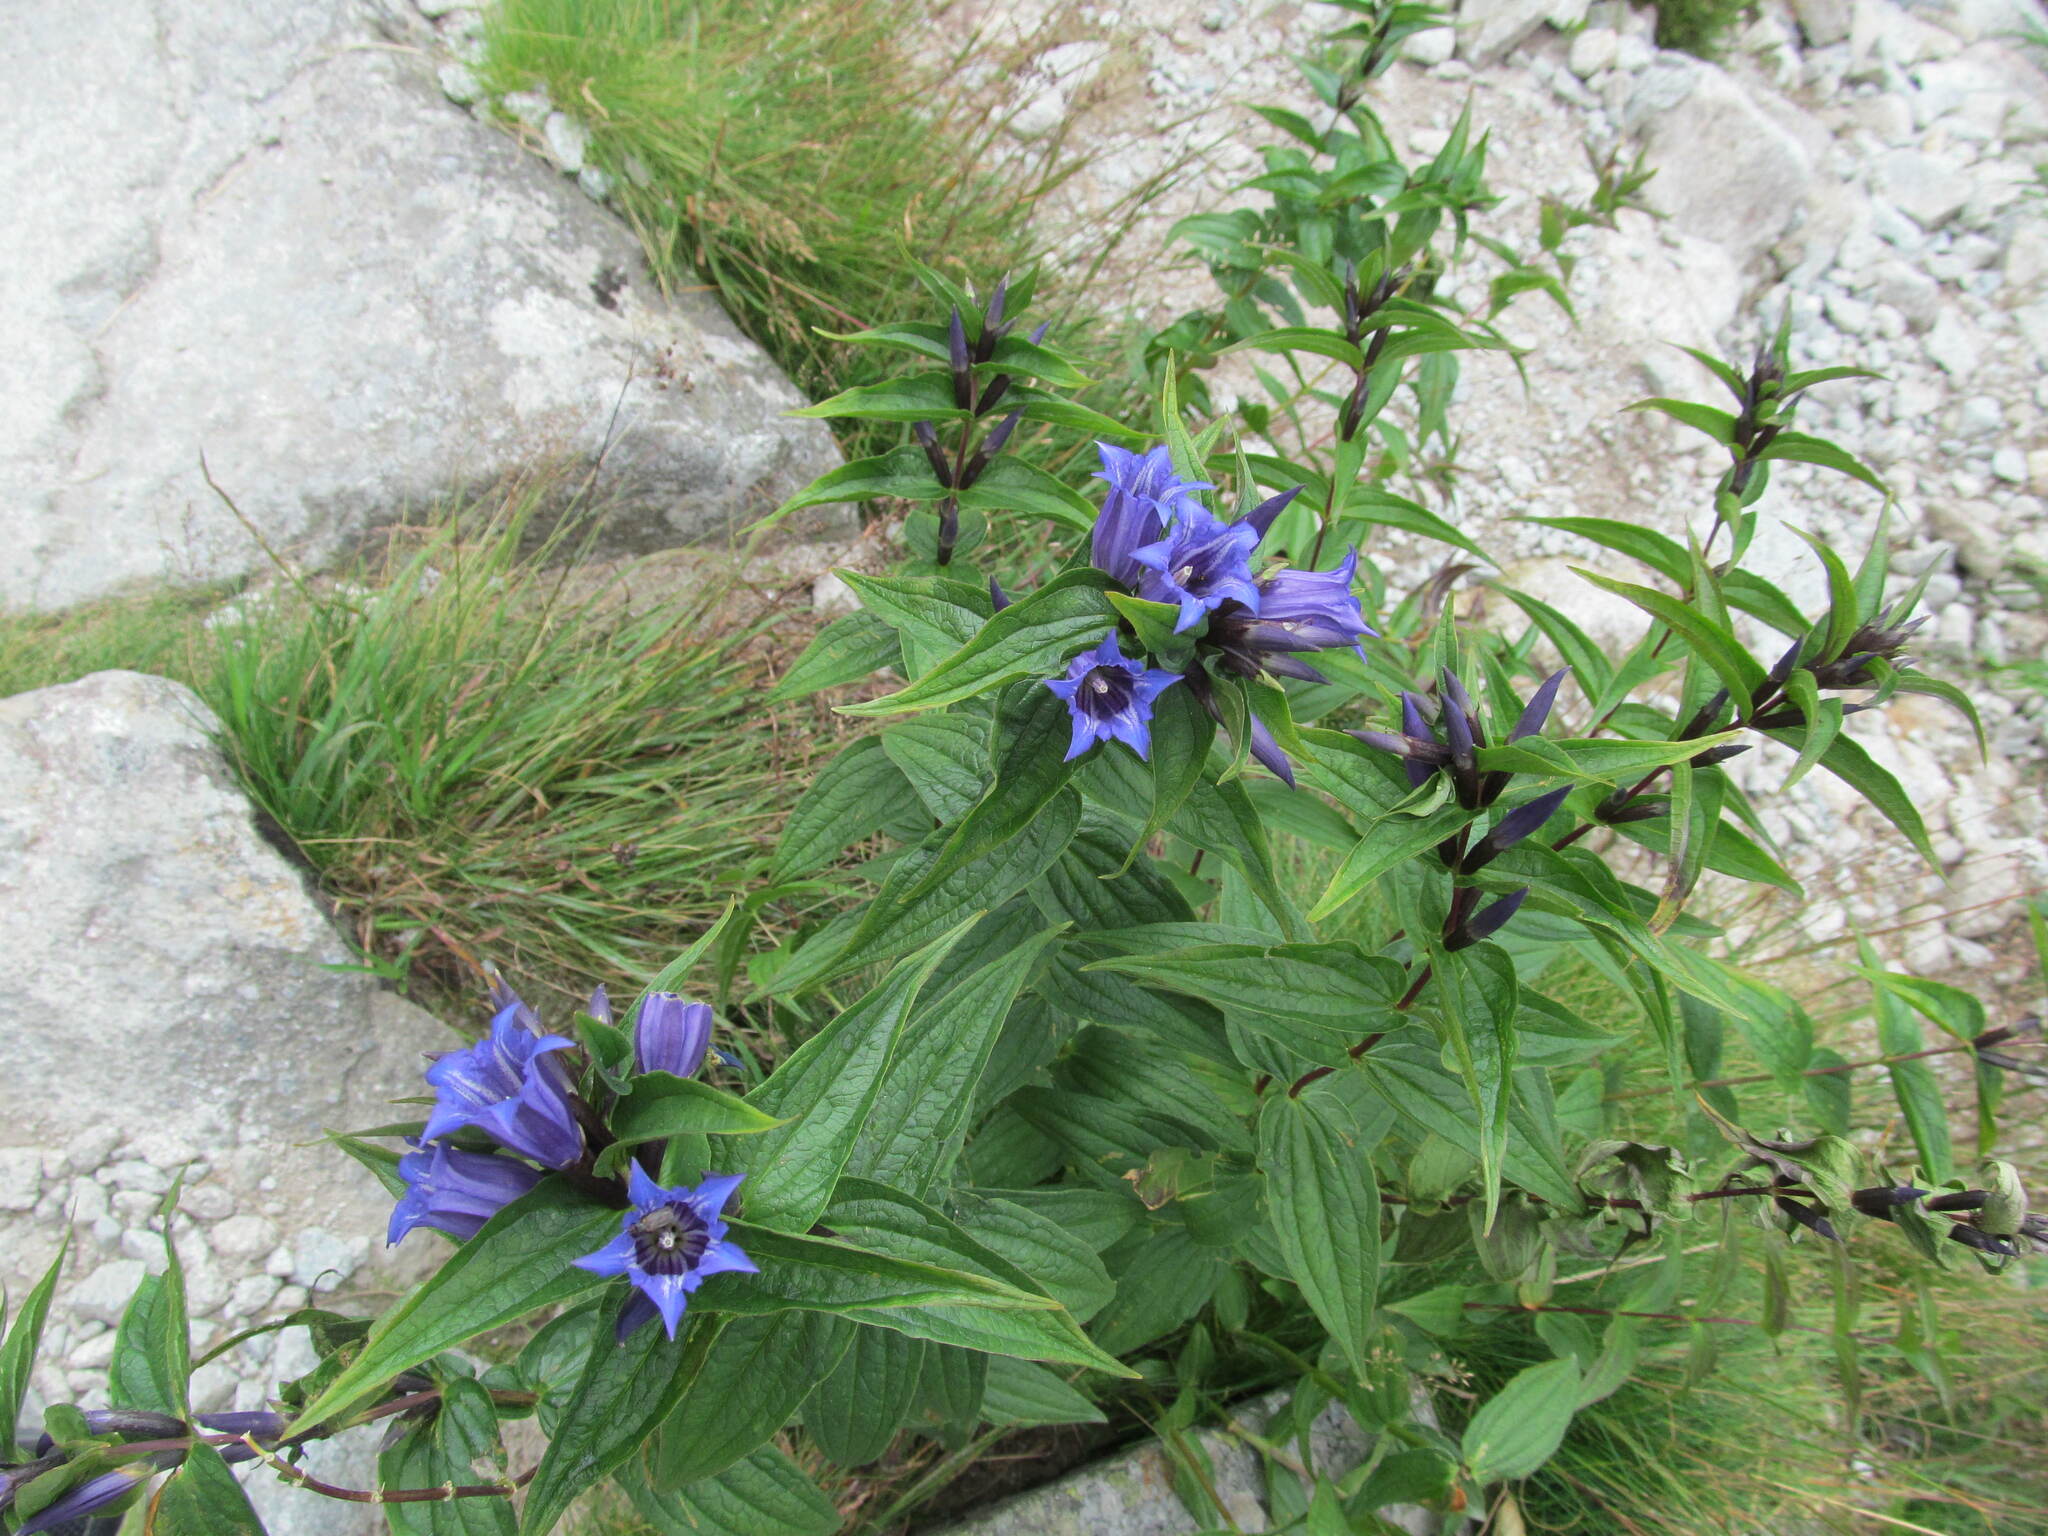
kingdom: Plantae
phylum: Tracheophyta
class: Magnoliopsida
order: Gentianales
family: Gentianaceae
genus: Gentiana
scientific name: Gentiana asclepiadea
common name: Willow gentian
